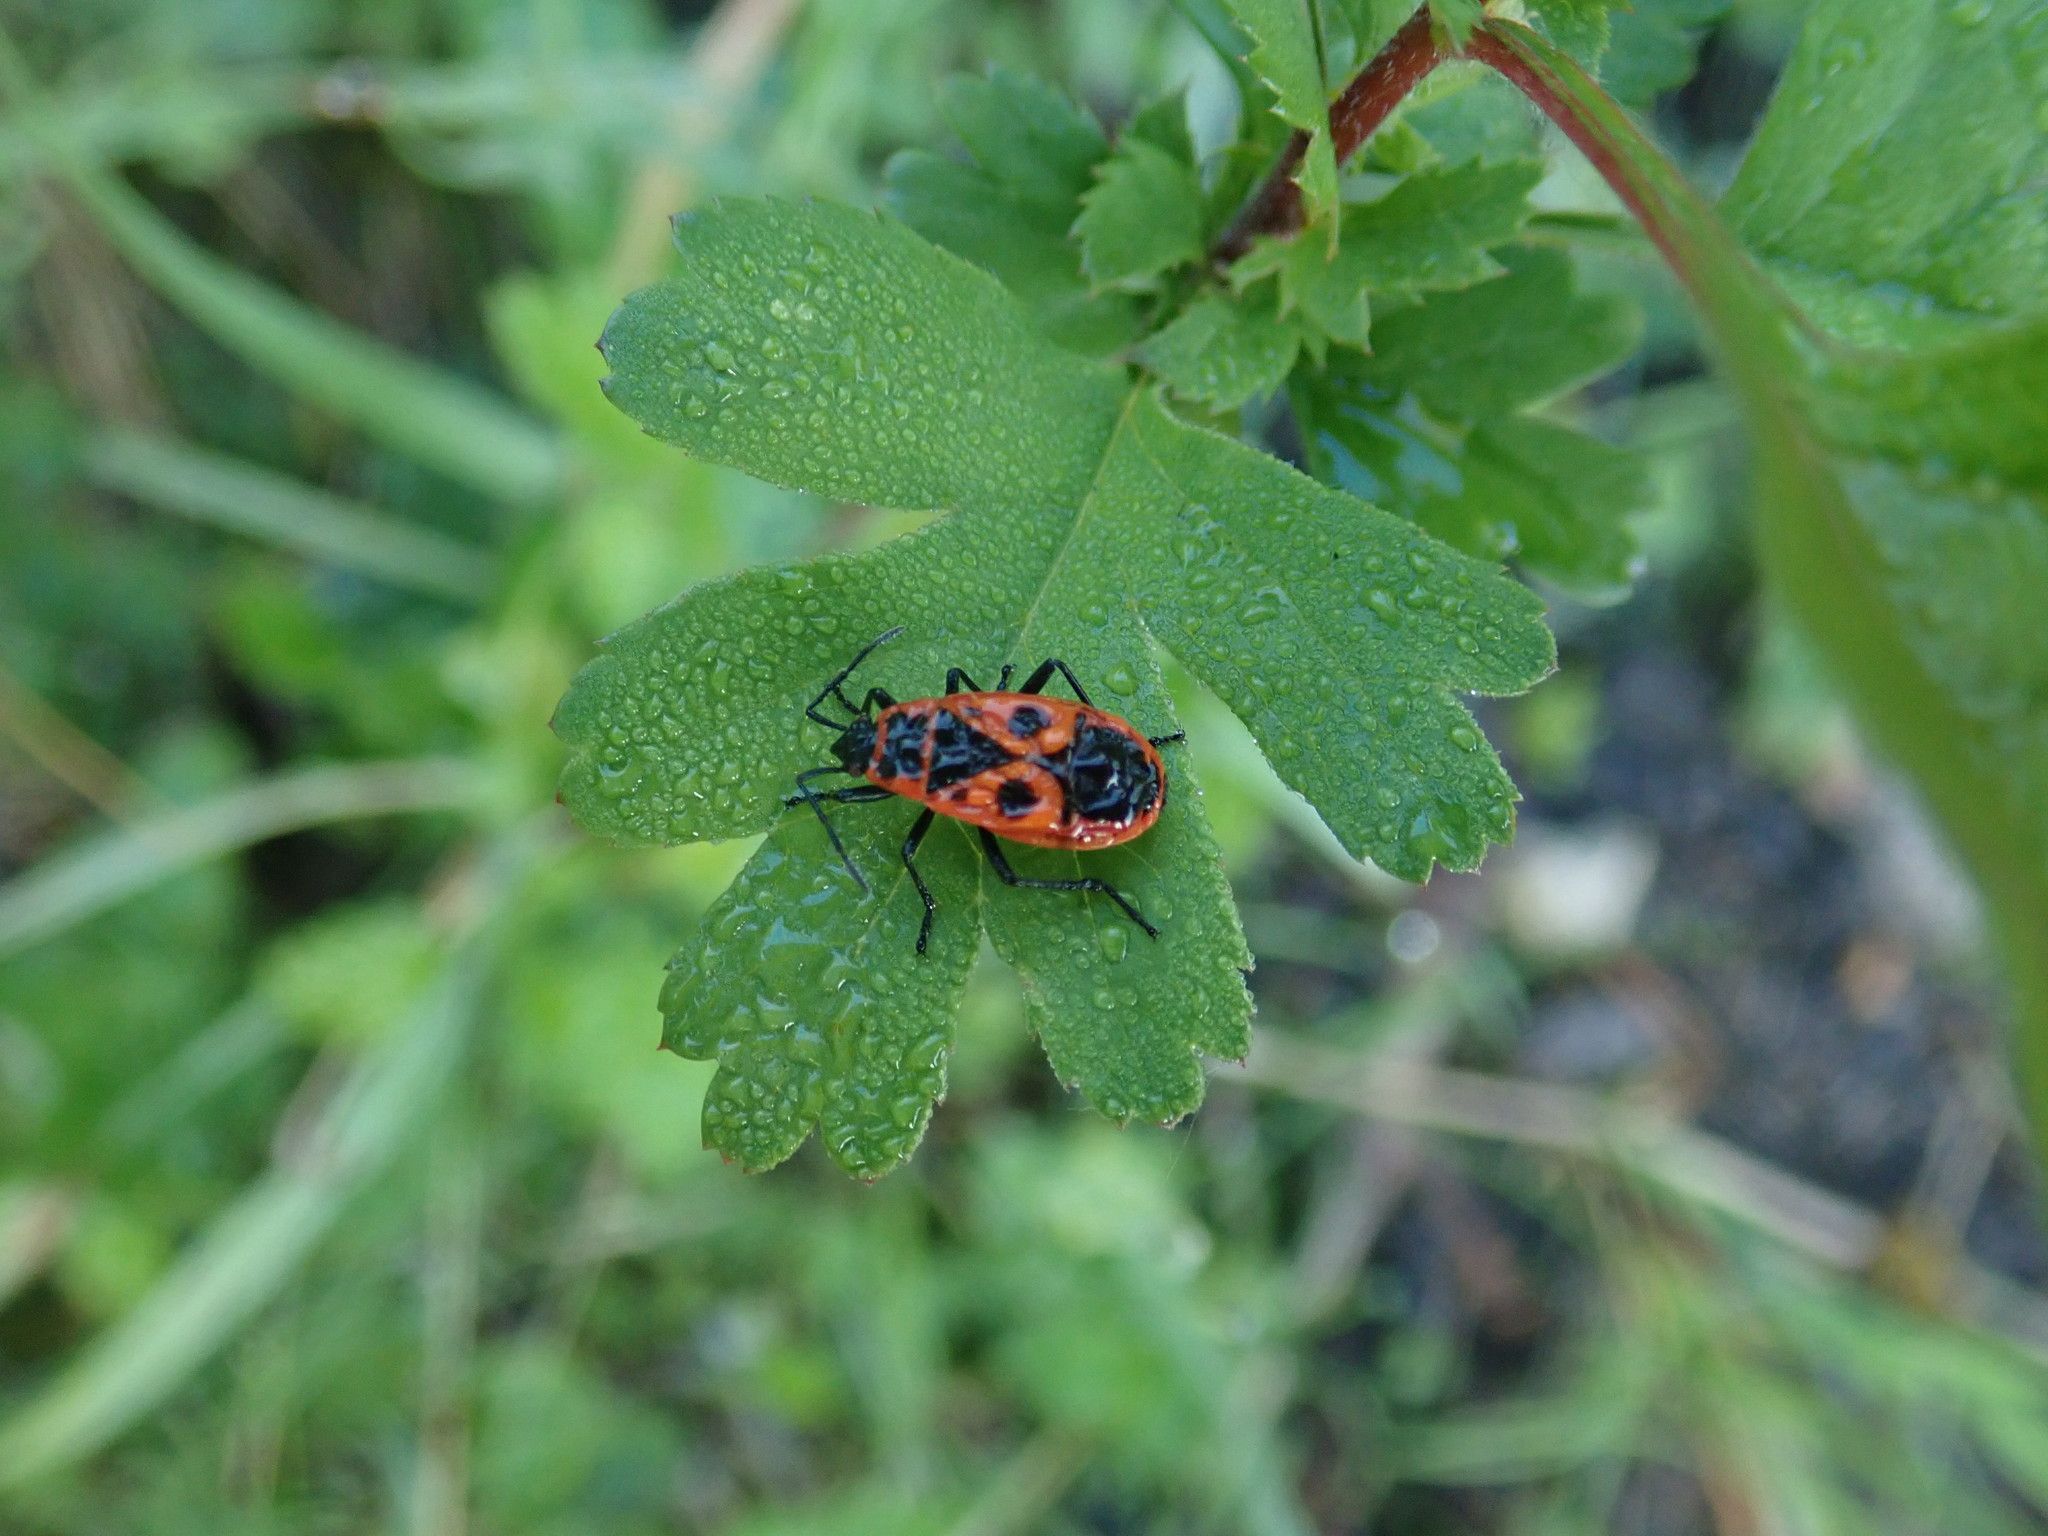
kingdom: Animalia
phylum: Arthropoda
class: Insecta
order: Hemiptera
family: Pyrrhocoridae
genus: Pyrrhocoris
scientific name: Pyrrhocoris apterus
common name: Firebug
